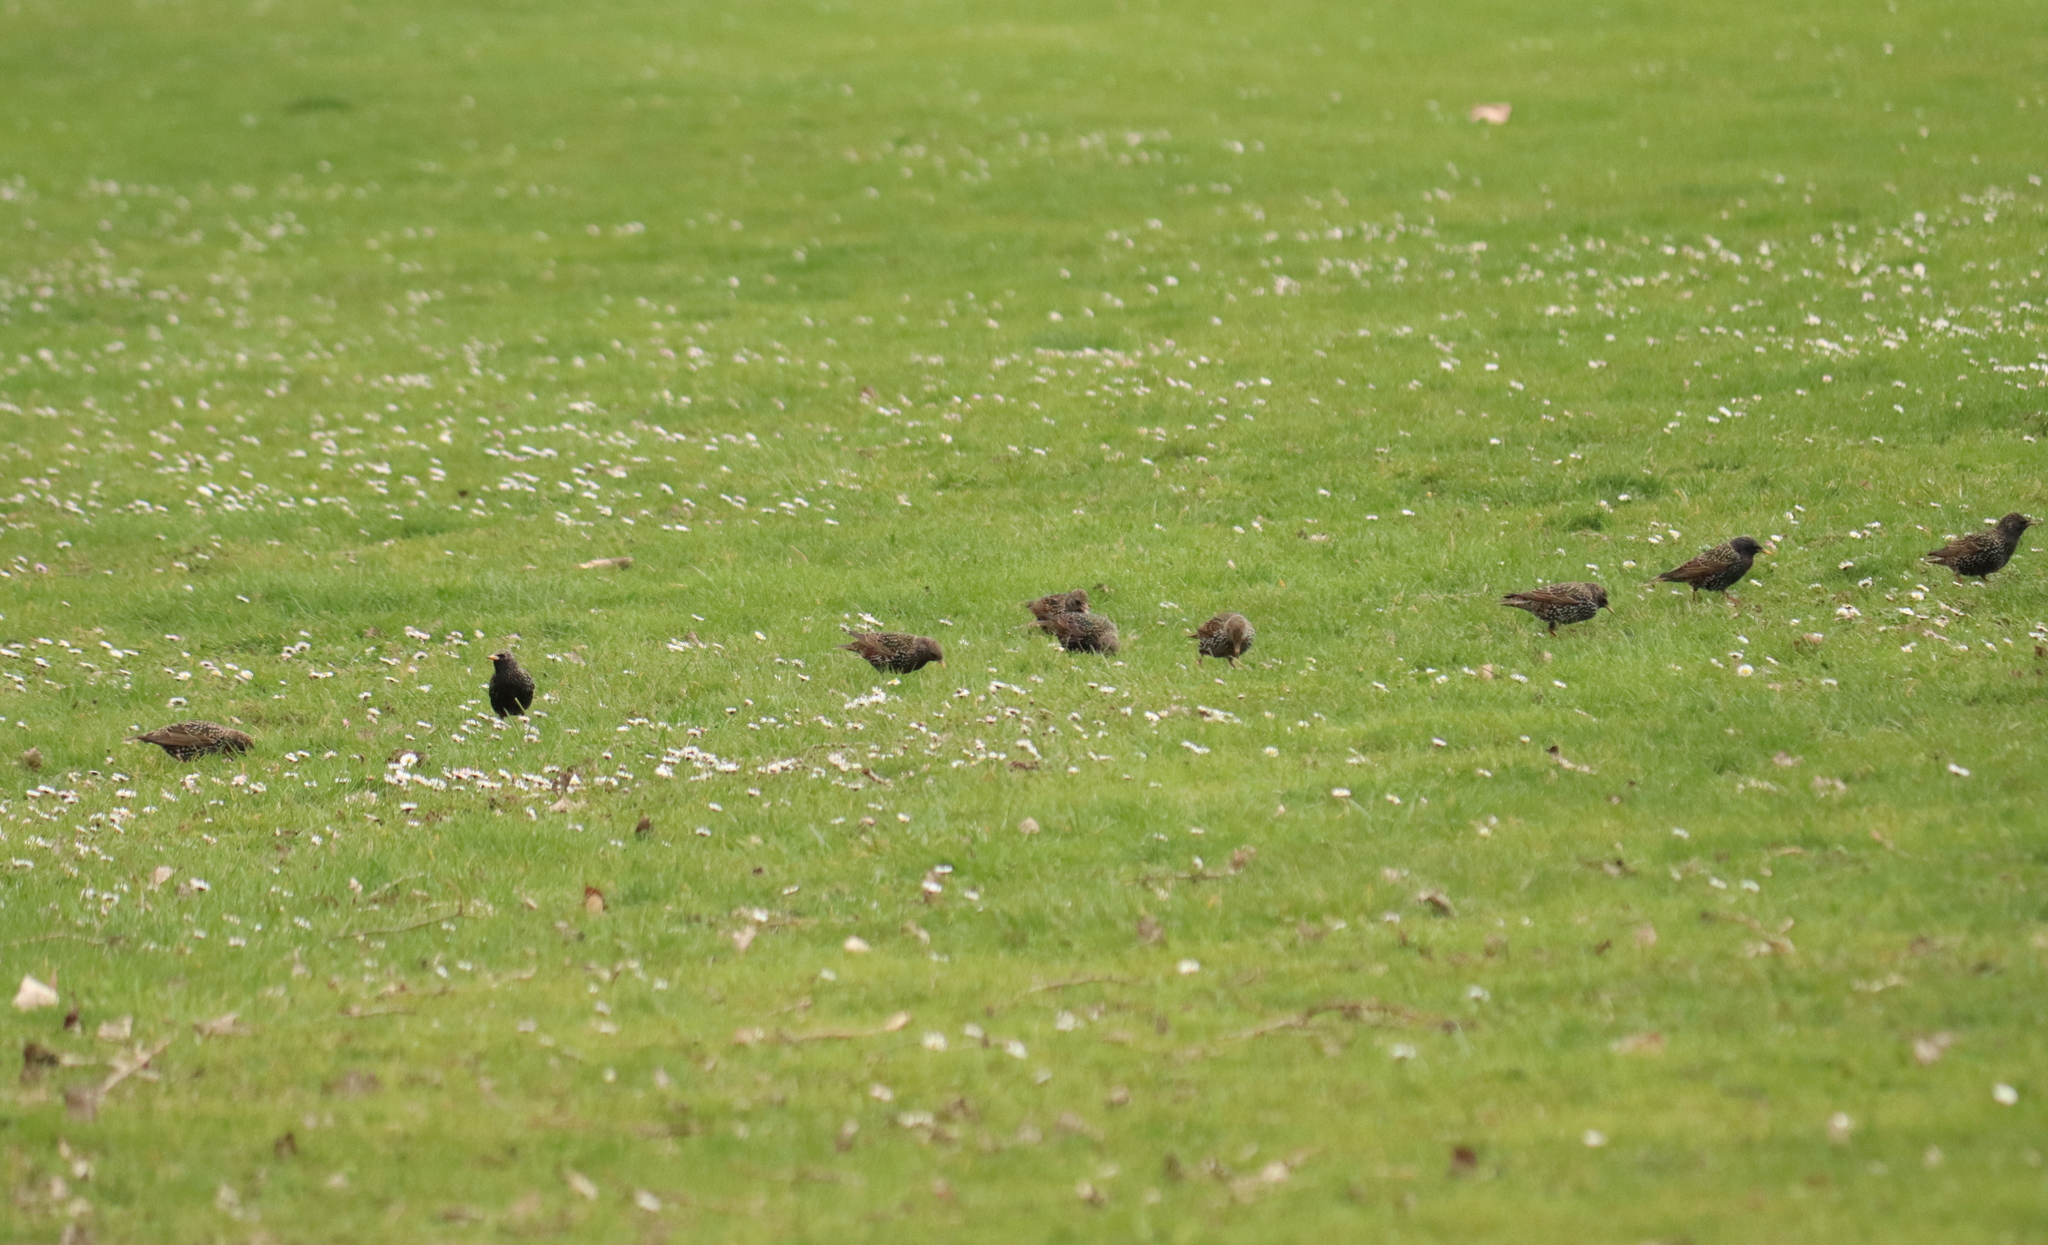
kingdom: Animalia
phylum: Chordata
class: Aves
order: Passeriformes
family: Sturnidae
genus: Sturnus
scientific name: Sturnus vulgaris
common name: Common starling
